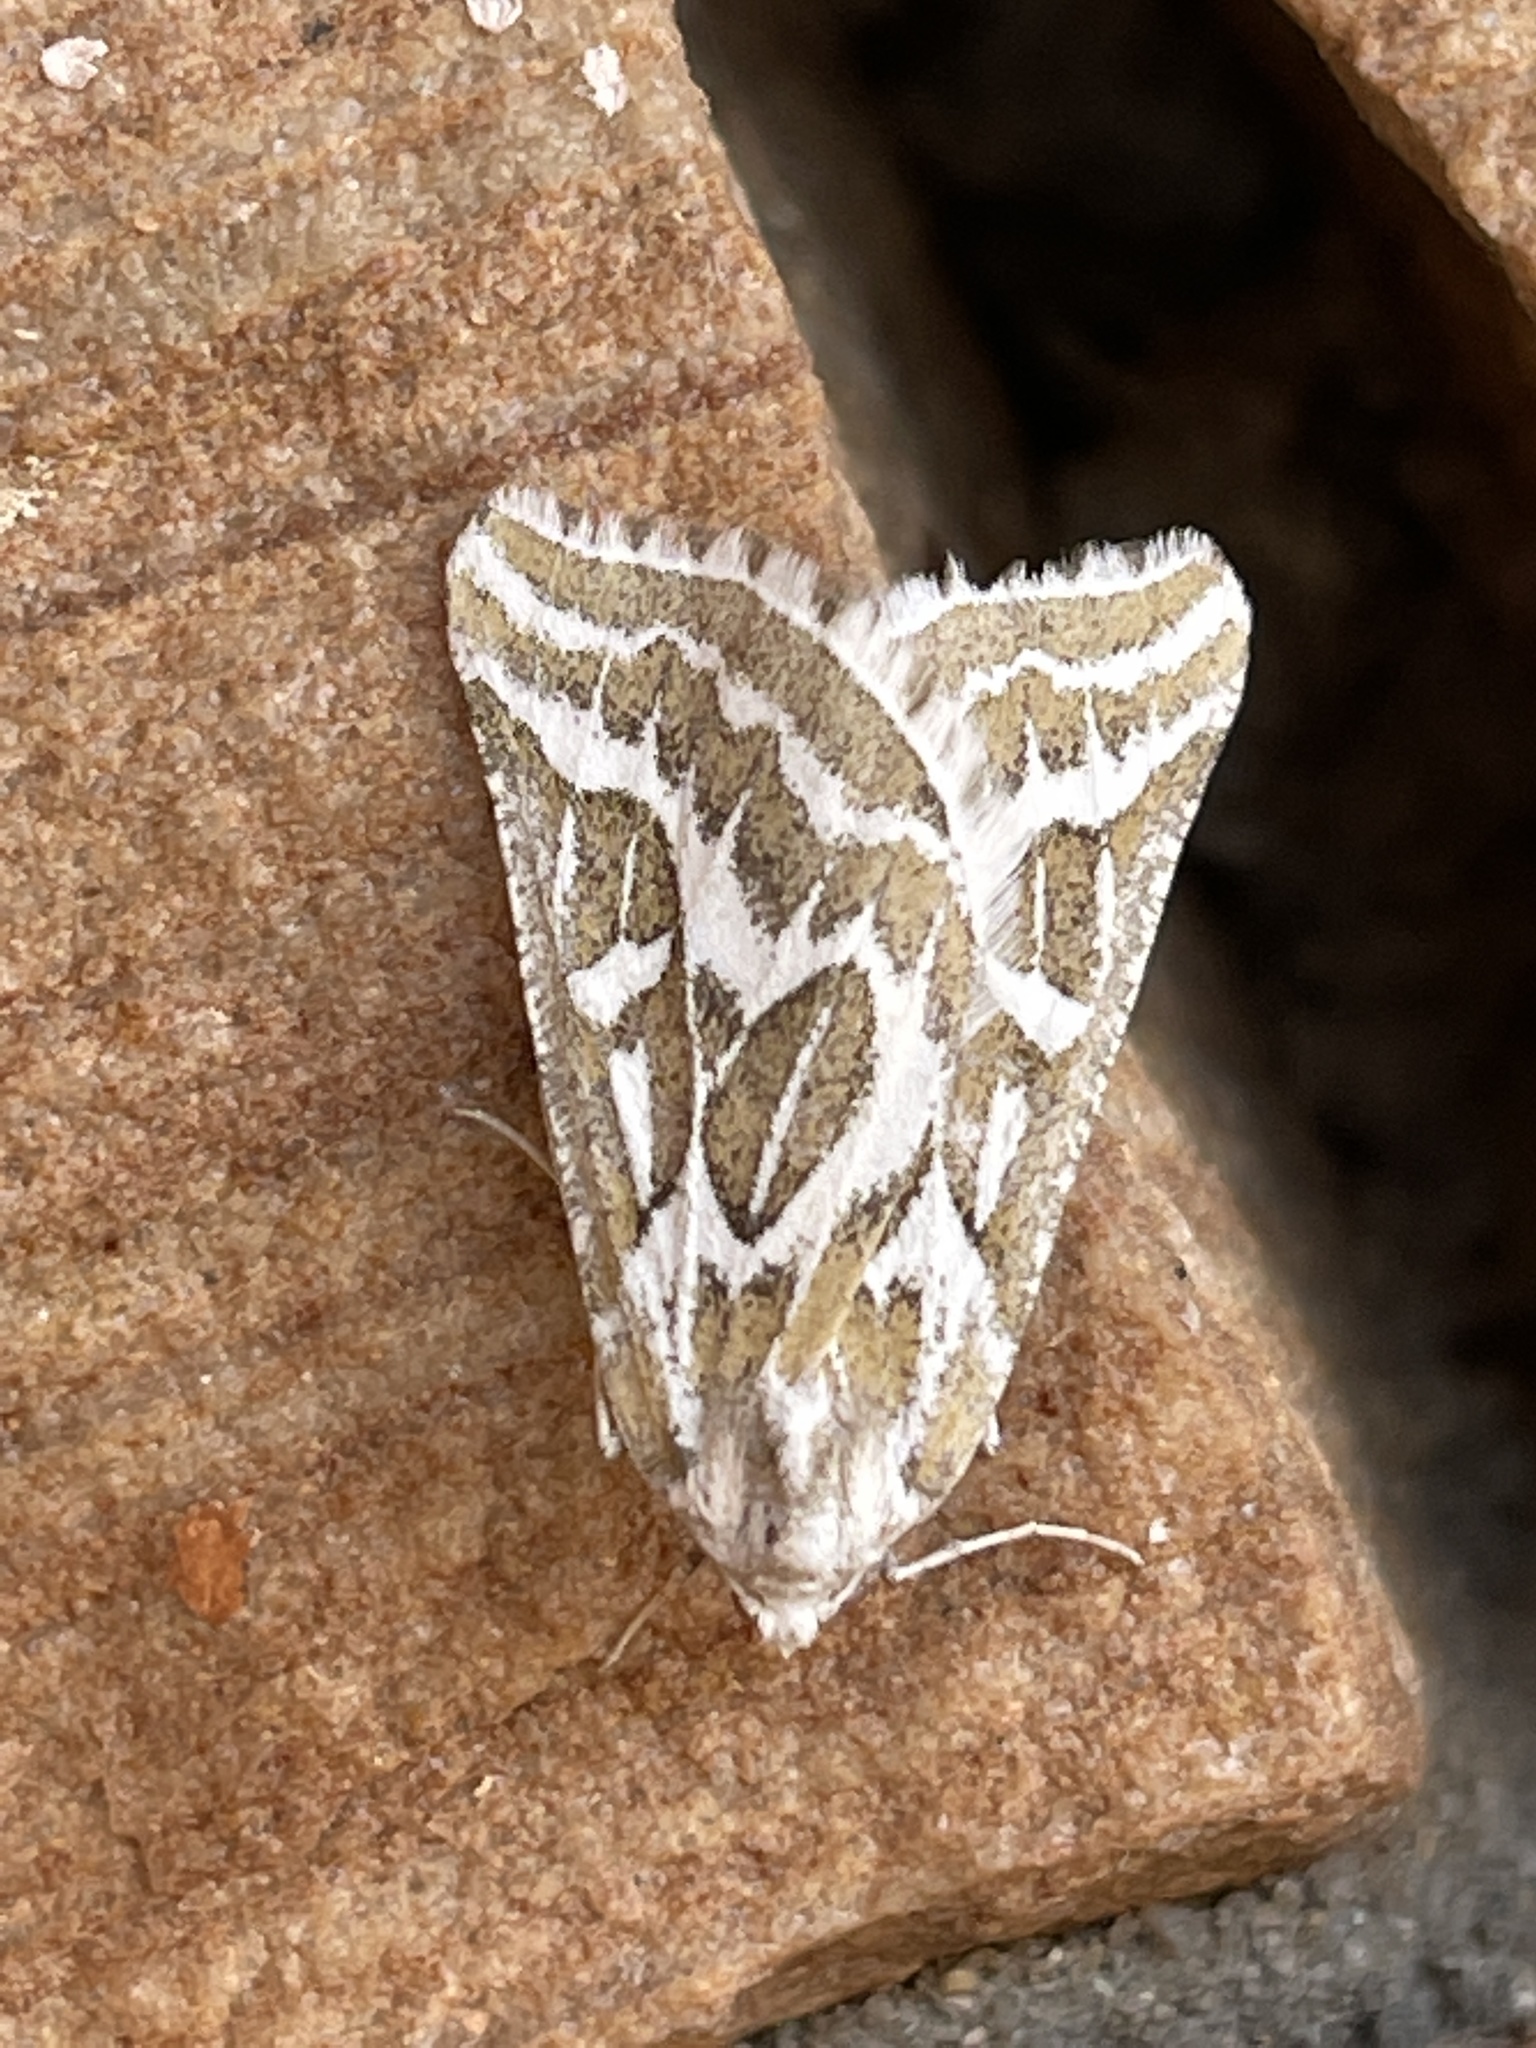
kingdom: Animalia
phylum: Arthropoda
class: Insecta
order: Lepidoptera
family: Geometridae
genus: Plataea
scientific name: Plataea trilinearia
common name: Sagebrush girdle moth
